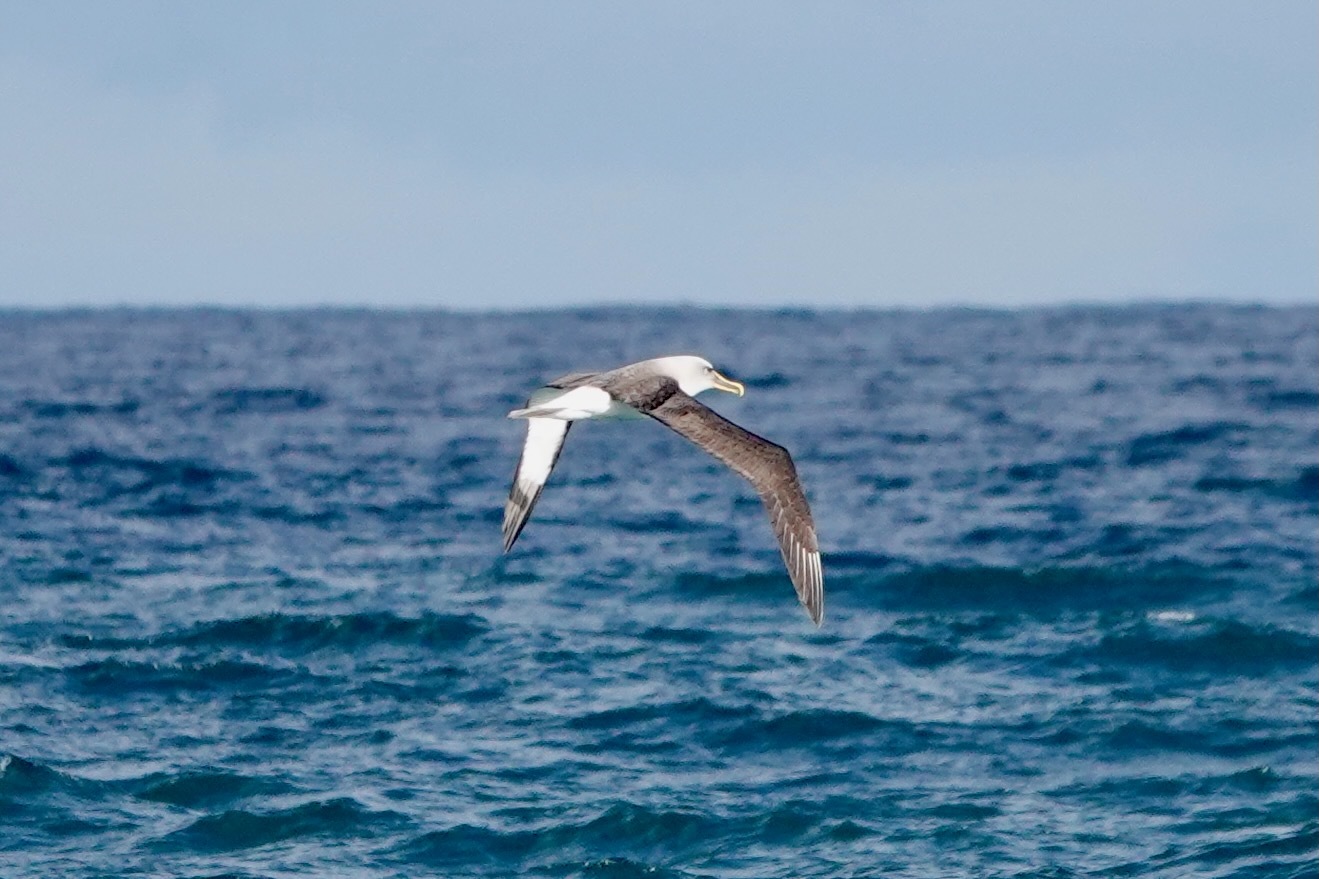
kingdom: Animalia
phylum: Chordata
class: Aves
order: Procellariiformes
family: Diomedeidae
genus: Thalassarche
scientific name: Thalassarche bulleri
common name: Buller's albatross
